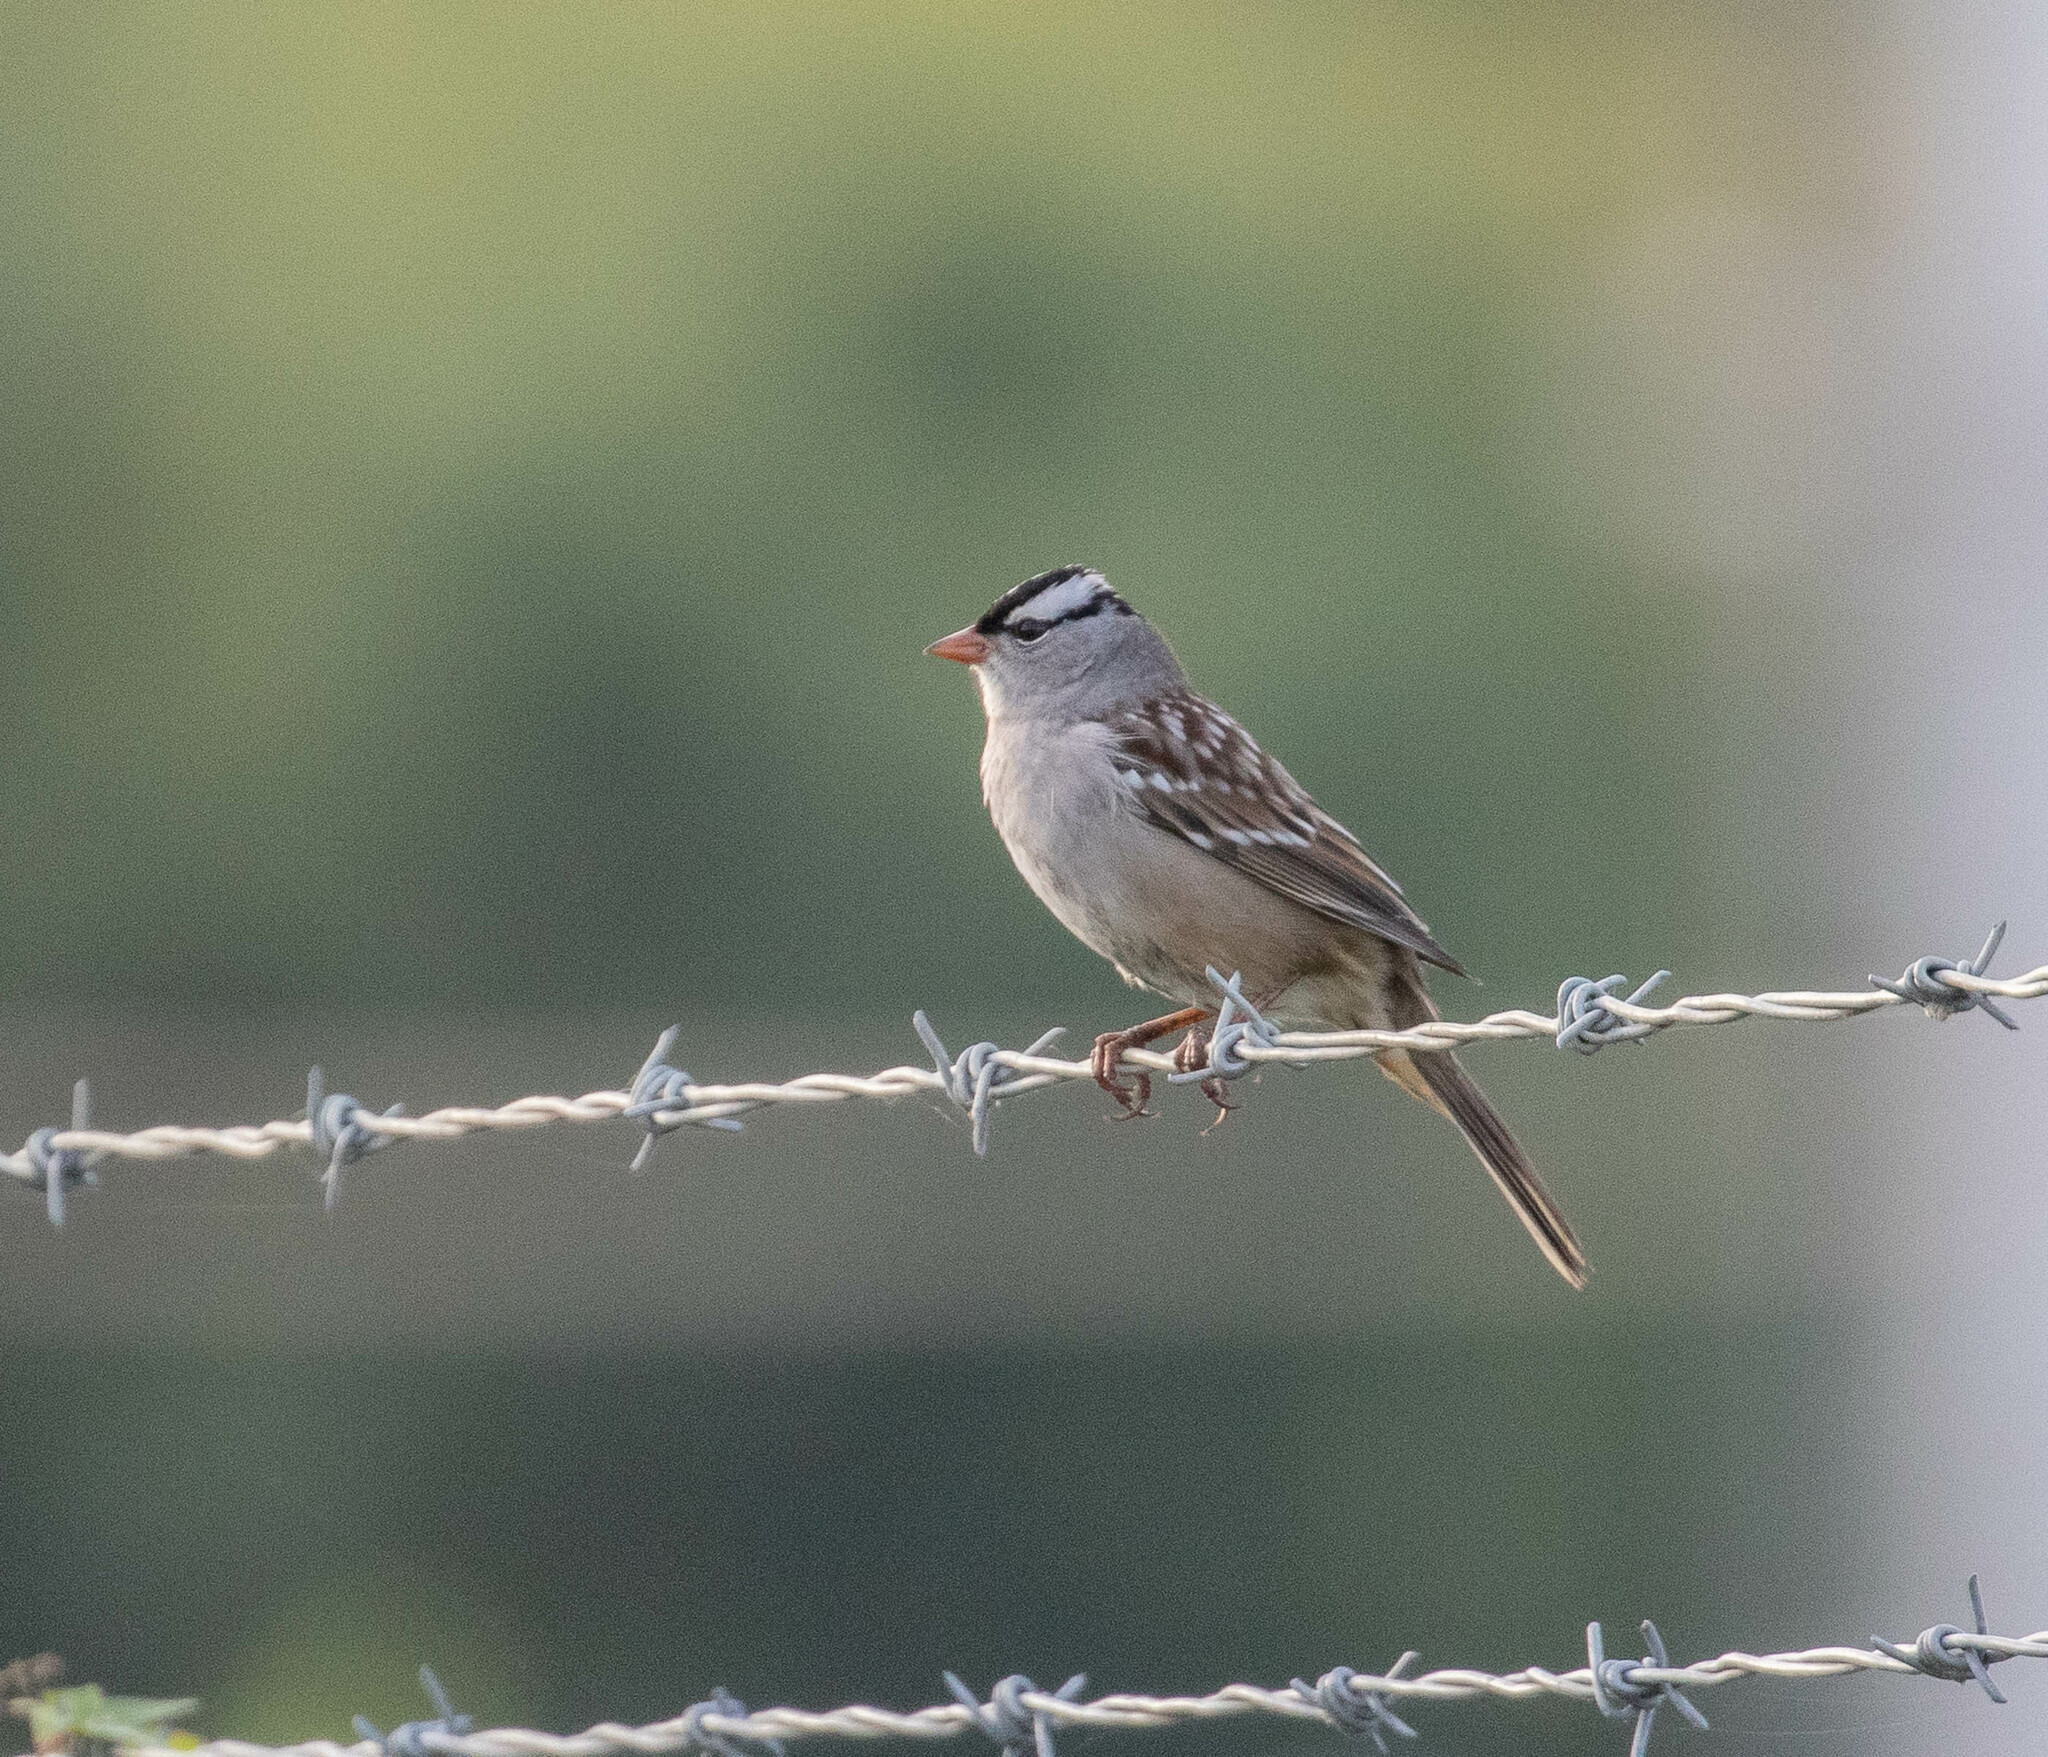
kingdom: Animalia
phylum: Chordata
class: Aves
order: Passeriformes
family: Passerellidae
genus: Zonotrichia
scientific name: Zonotrichia leucophrys
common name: White-crowned sparrow
